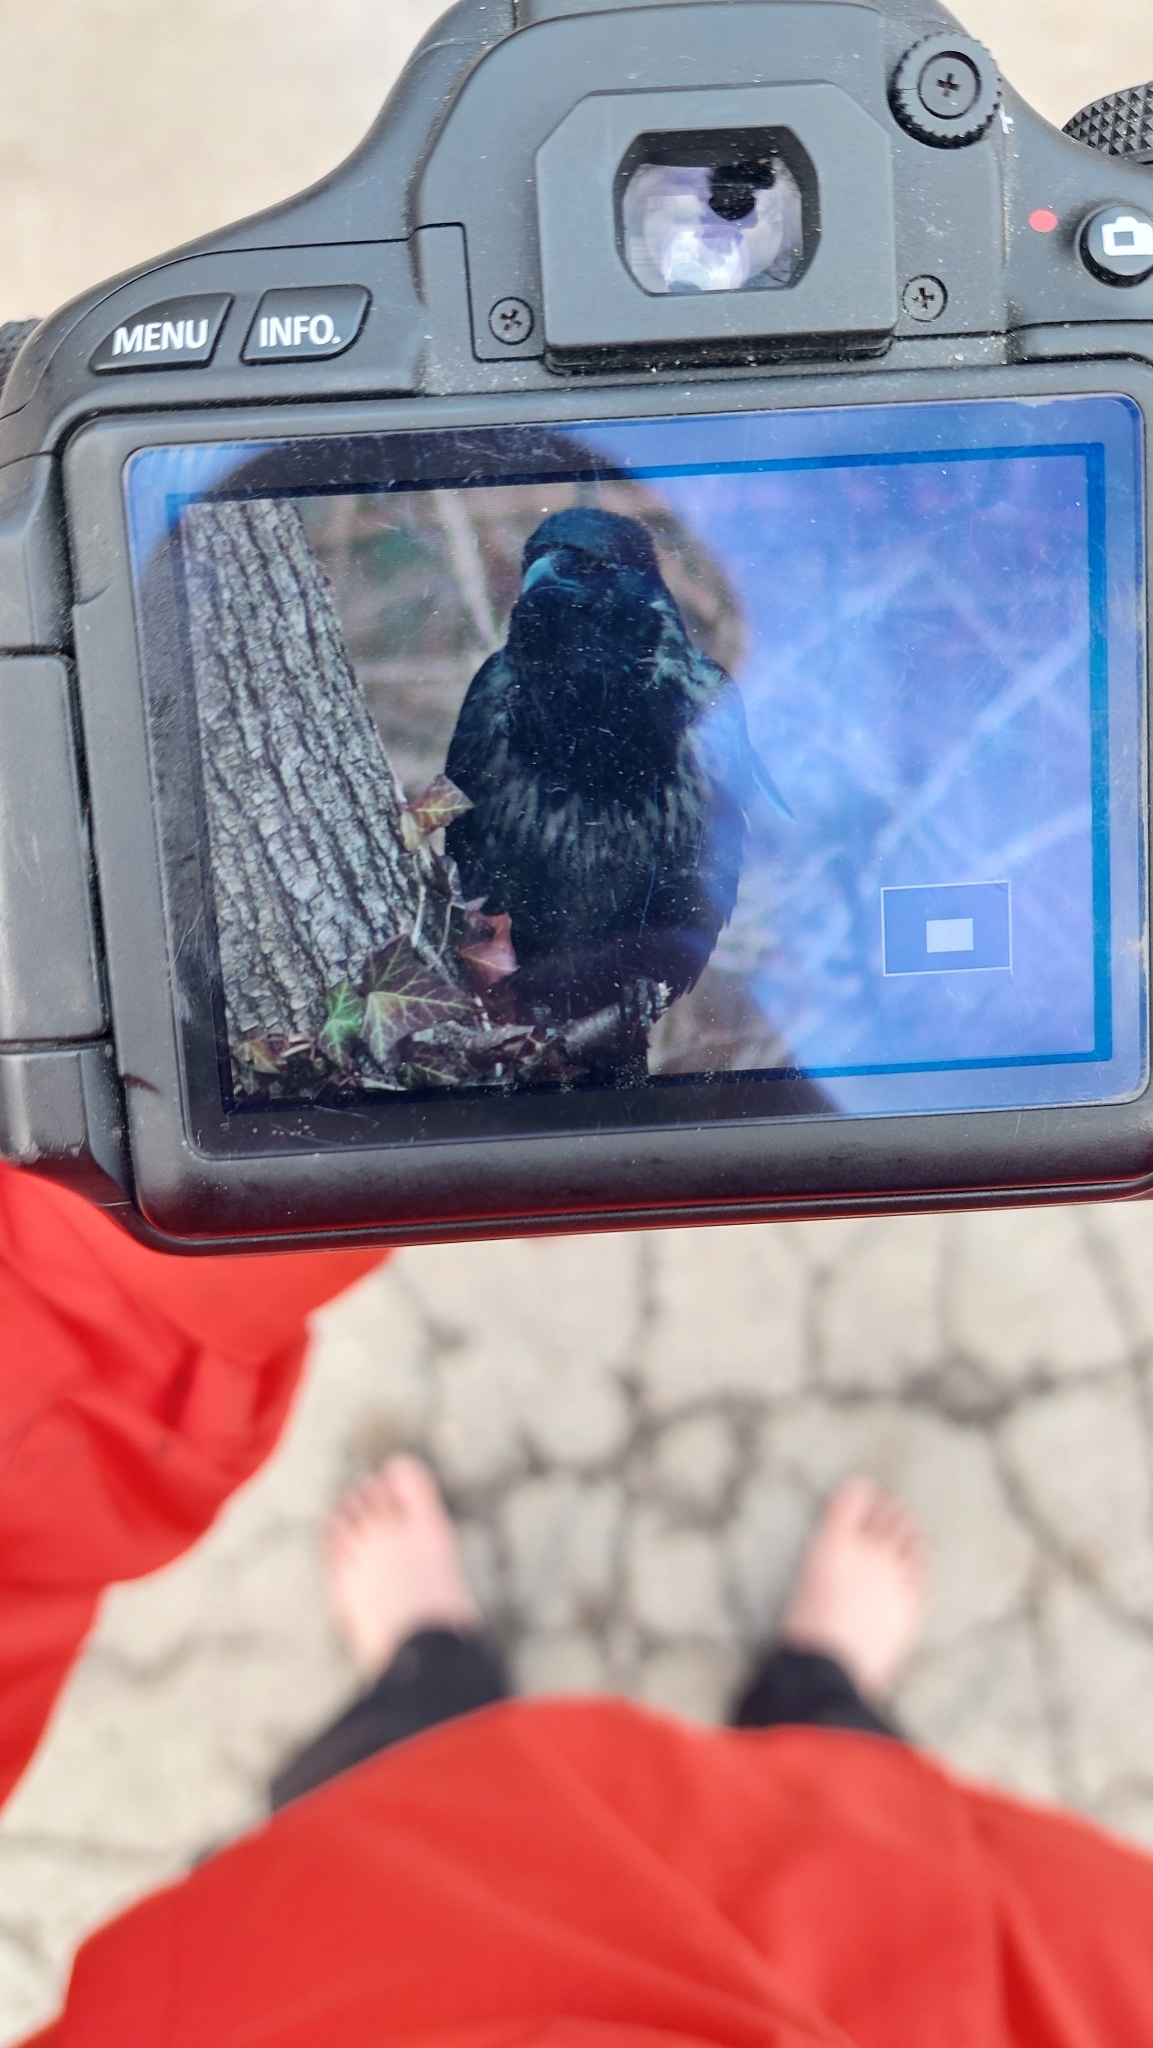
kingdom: Animalia
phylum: Chordata
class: Aves
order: Passeriformes
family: Corvidae
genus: Corvus
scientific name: Corvus
